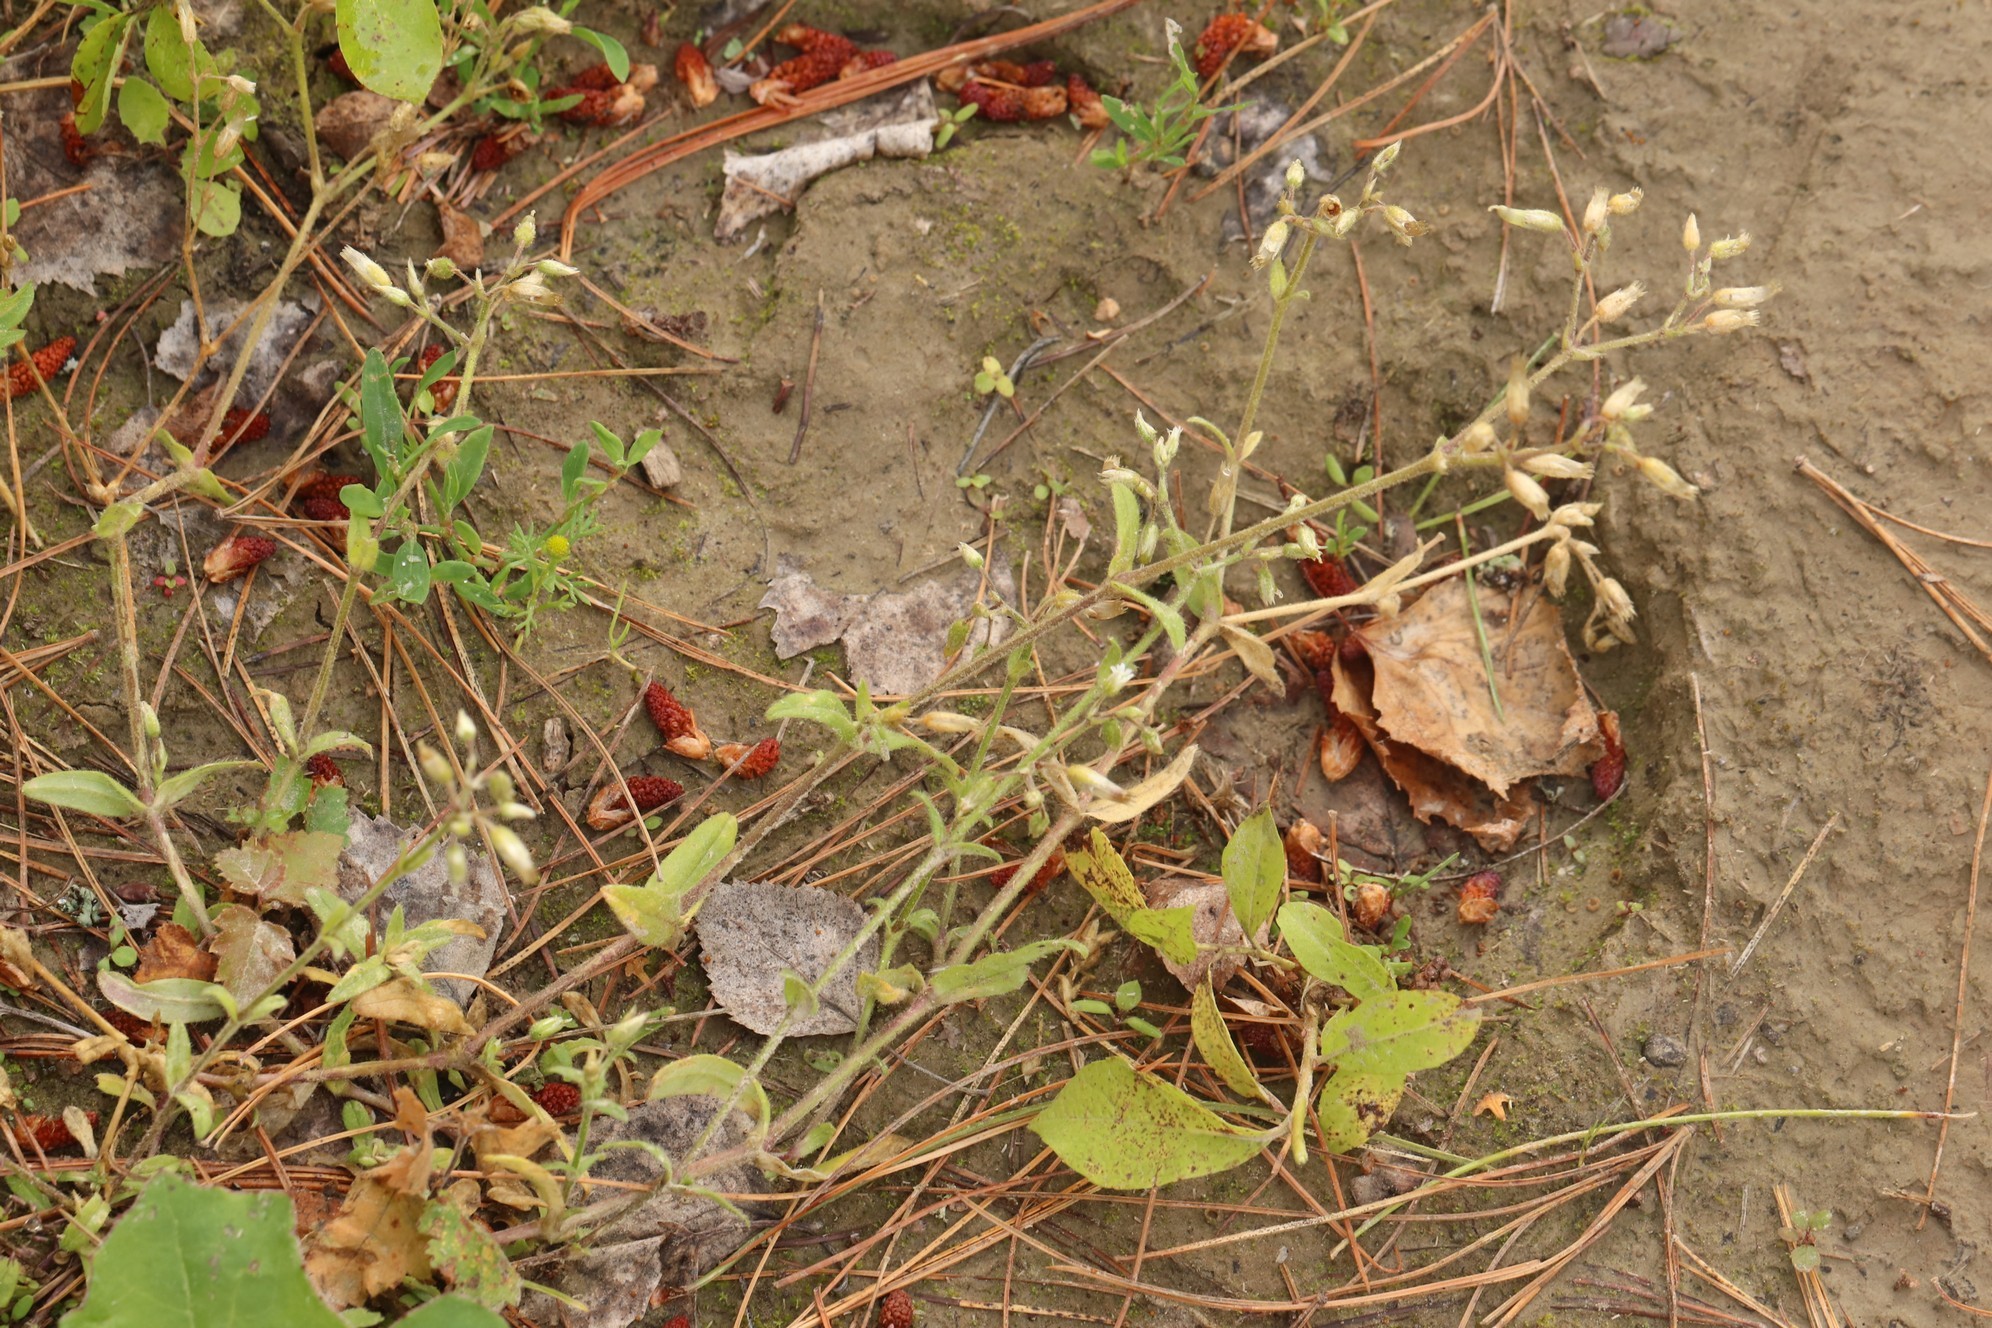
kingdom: Plantae
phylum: Tracheophyta
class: Magnoliopsida
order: Caryophyllales
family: Caryophyllaceae
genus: Cerastium
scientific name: Cerastium holosteoides
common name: Big chickweed
